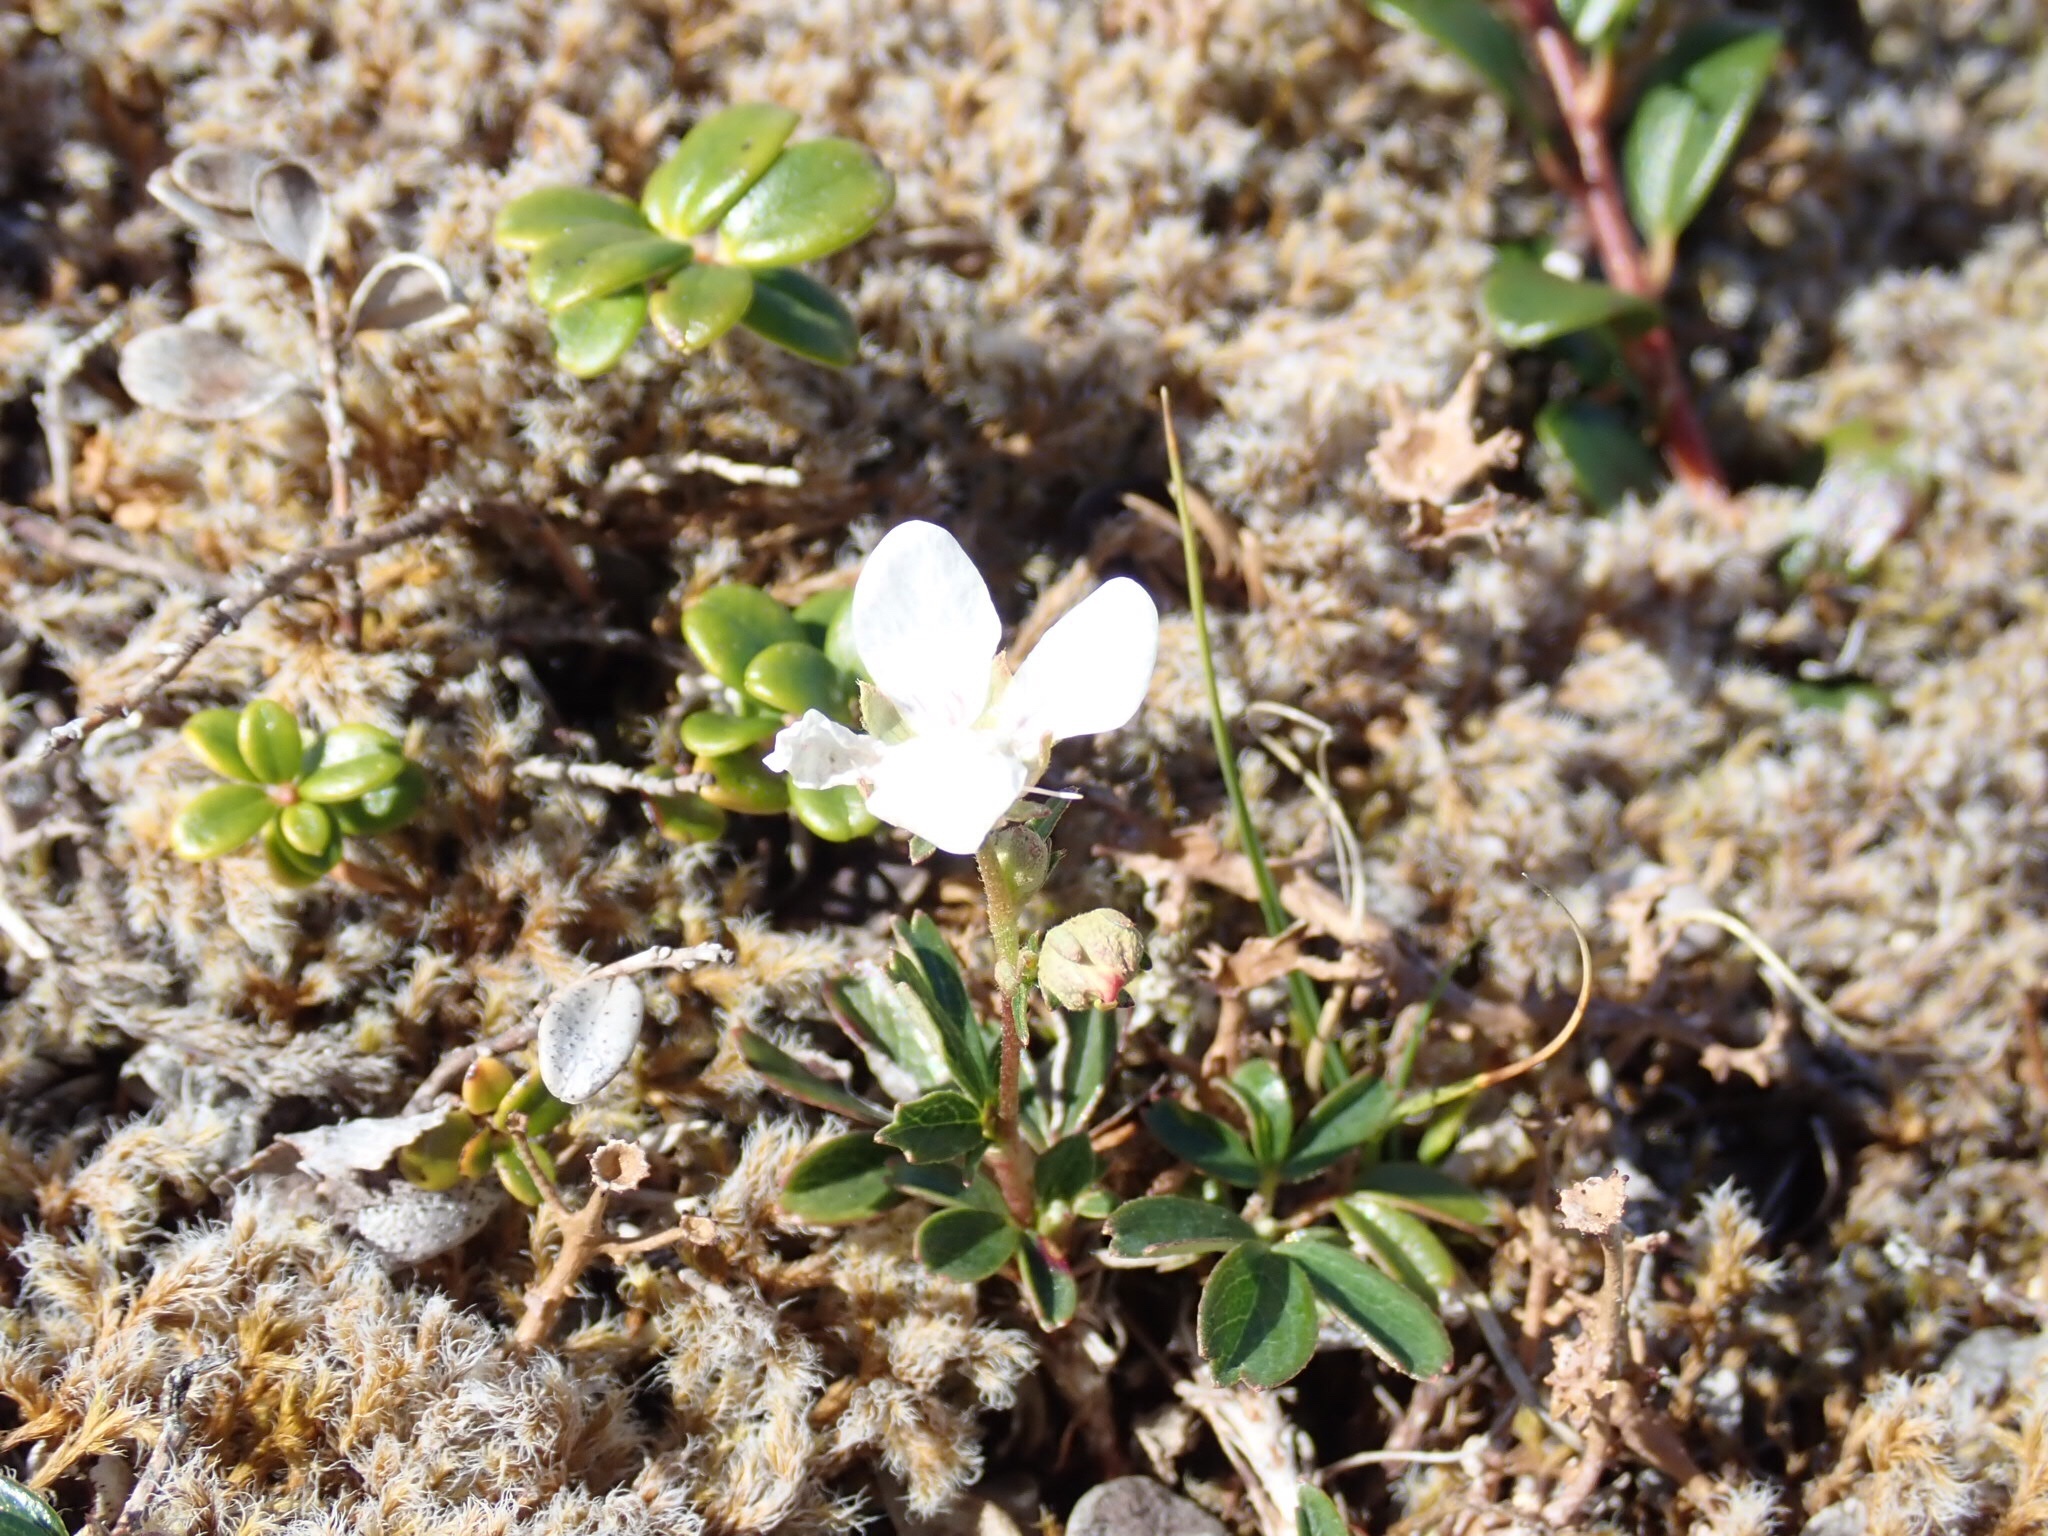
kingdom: Plantae
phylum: Tracheophyta
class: Magnoliopsida
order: Rosales
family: Rosaceae
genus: Sibbaldia
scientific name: Sibbaldia tridentata
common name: Three-toothed cinquefoil
